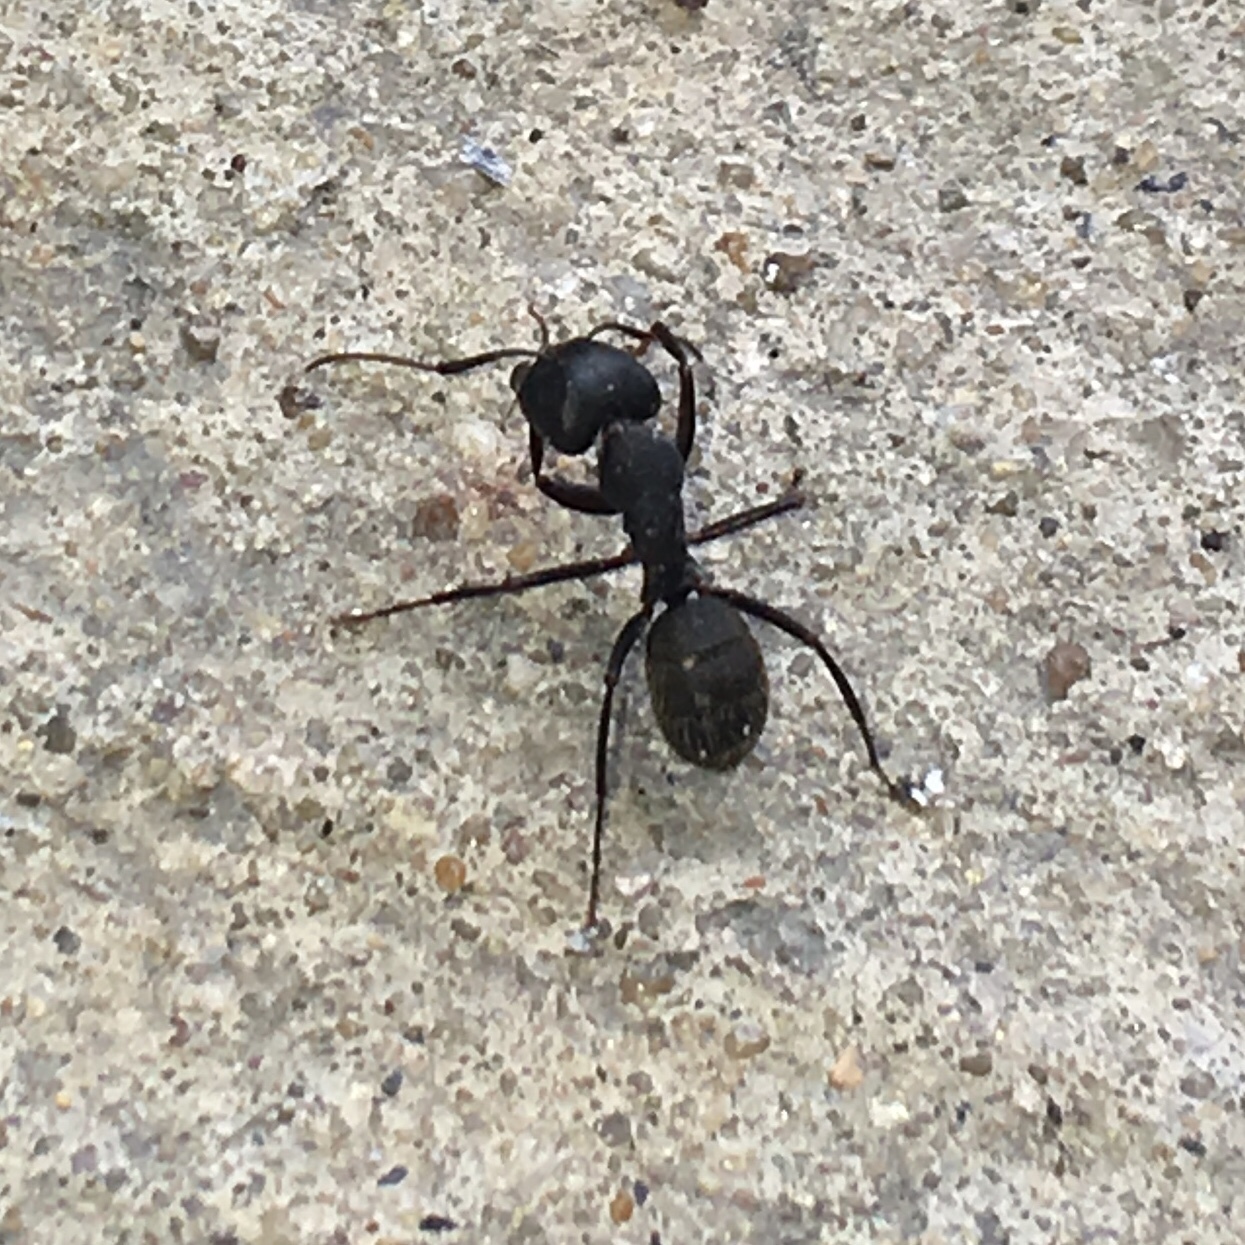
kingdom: Animalia
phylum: Arthropoda
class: Insecta
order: Hymenoptera
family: Formicidae
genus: Camponotus
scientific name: Camponotus pennsylvanicus
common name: Black carpenter ant
